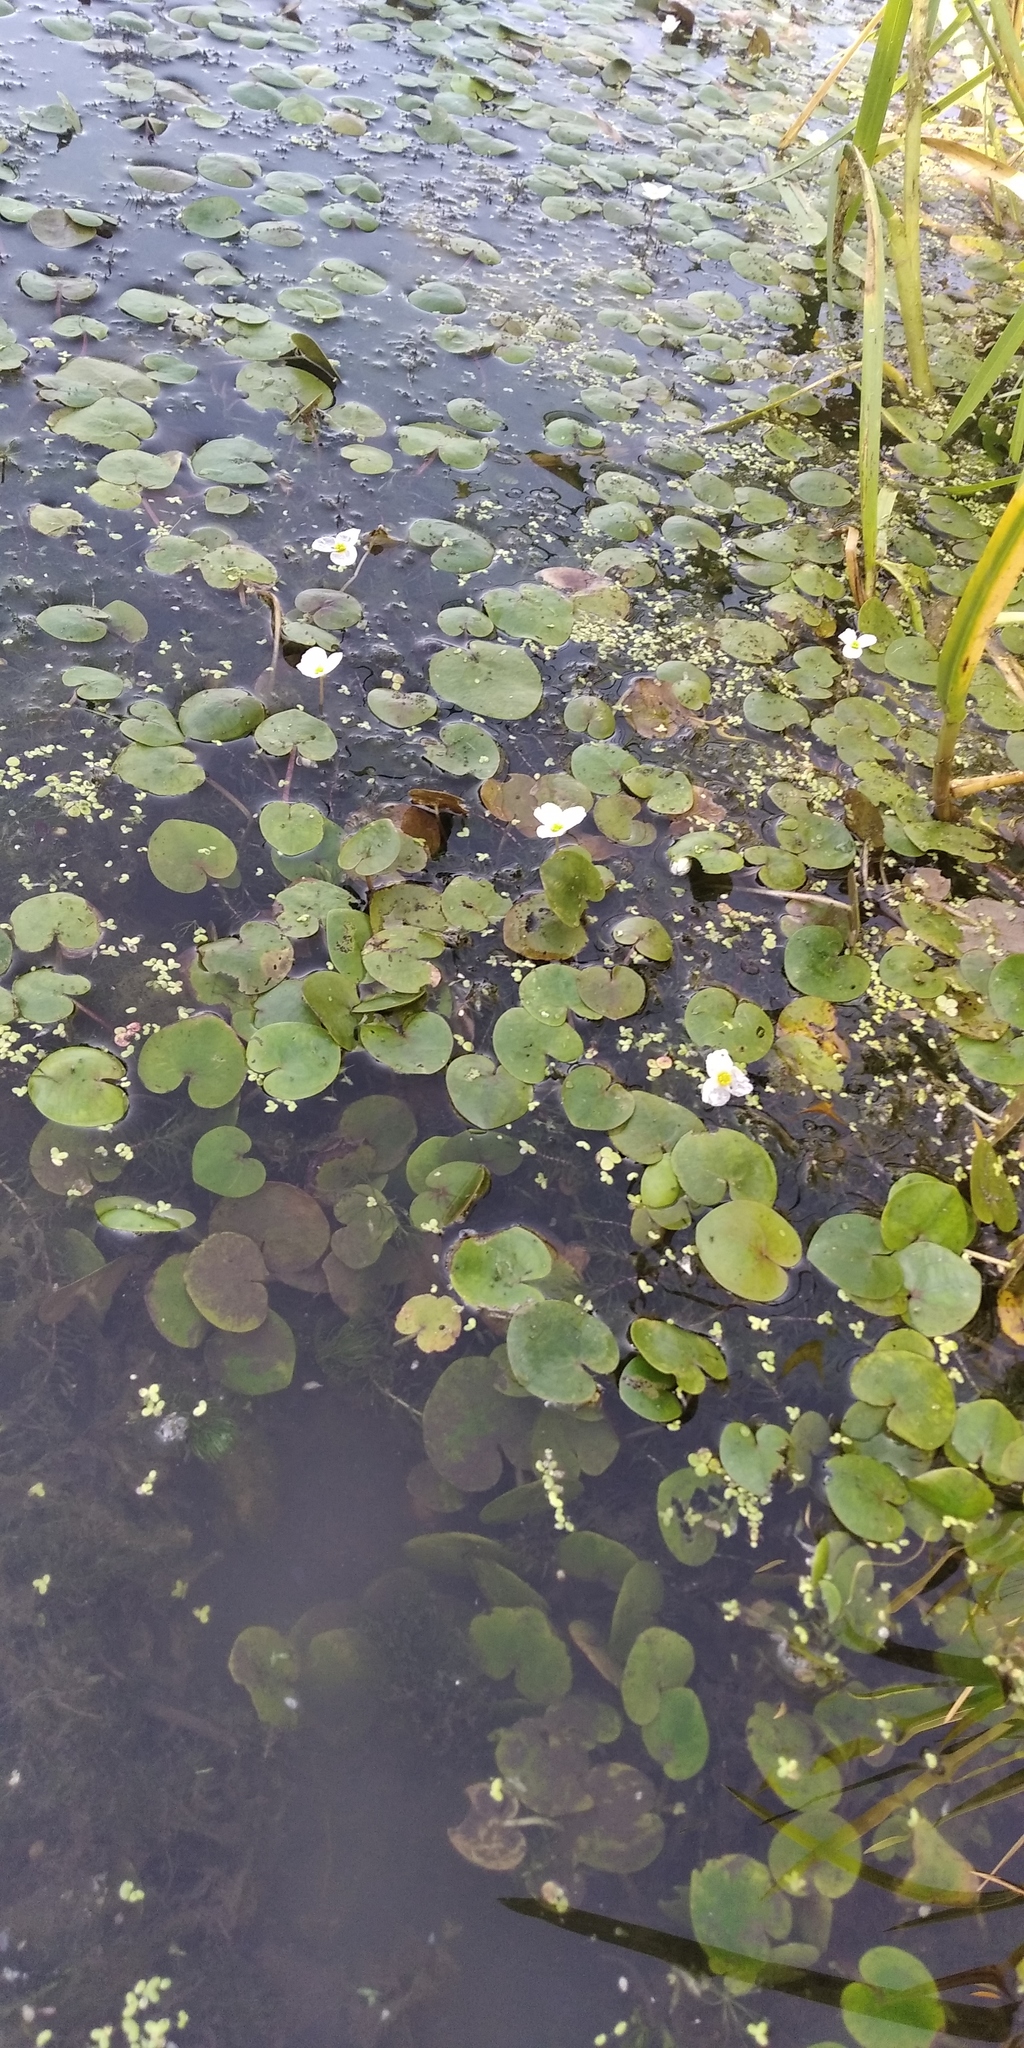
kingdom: Plantae
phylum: Tracheophyta
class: Liliopsida
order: Alismatales
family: Hydrocharitaceae
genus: Hydrocharis
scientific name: Hydrocharis morsus-ranae
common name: Frogbit
